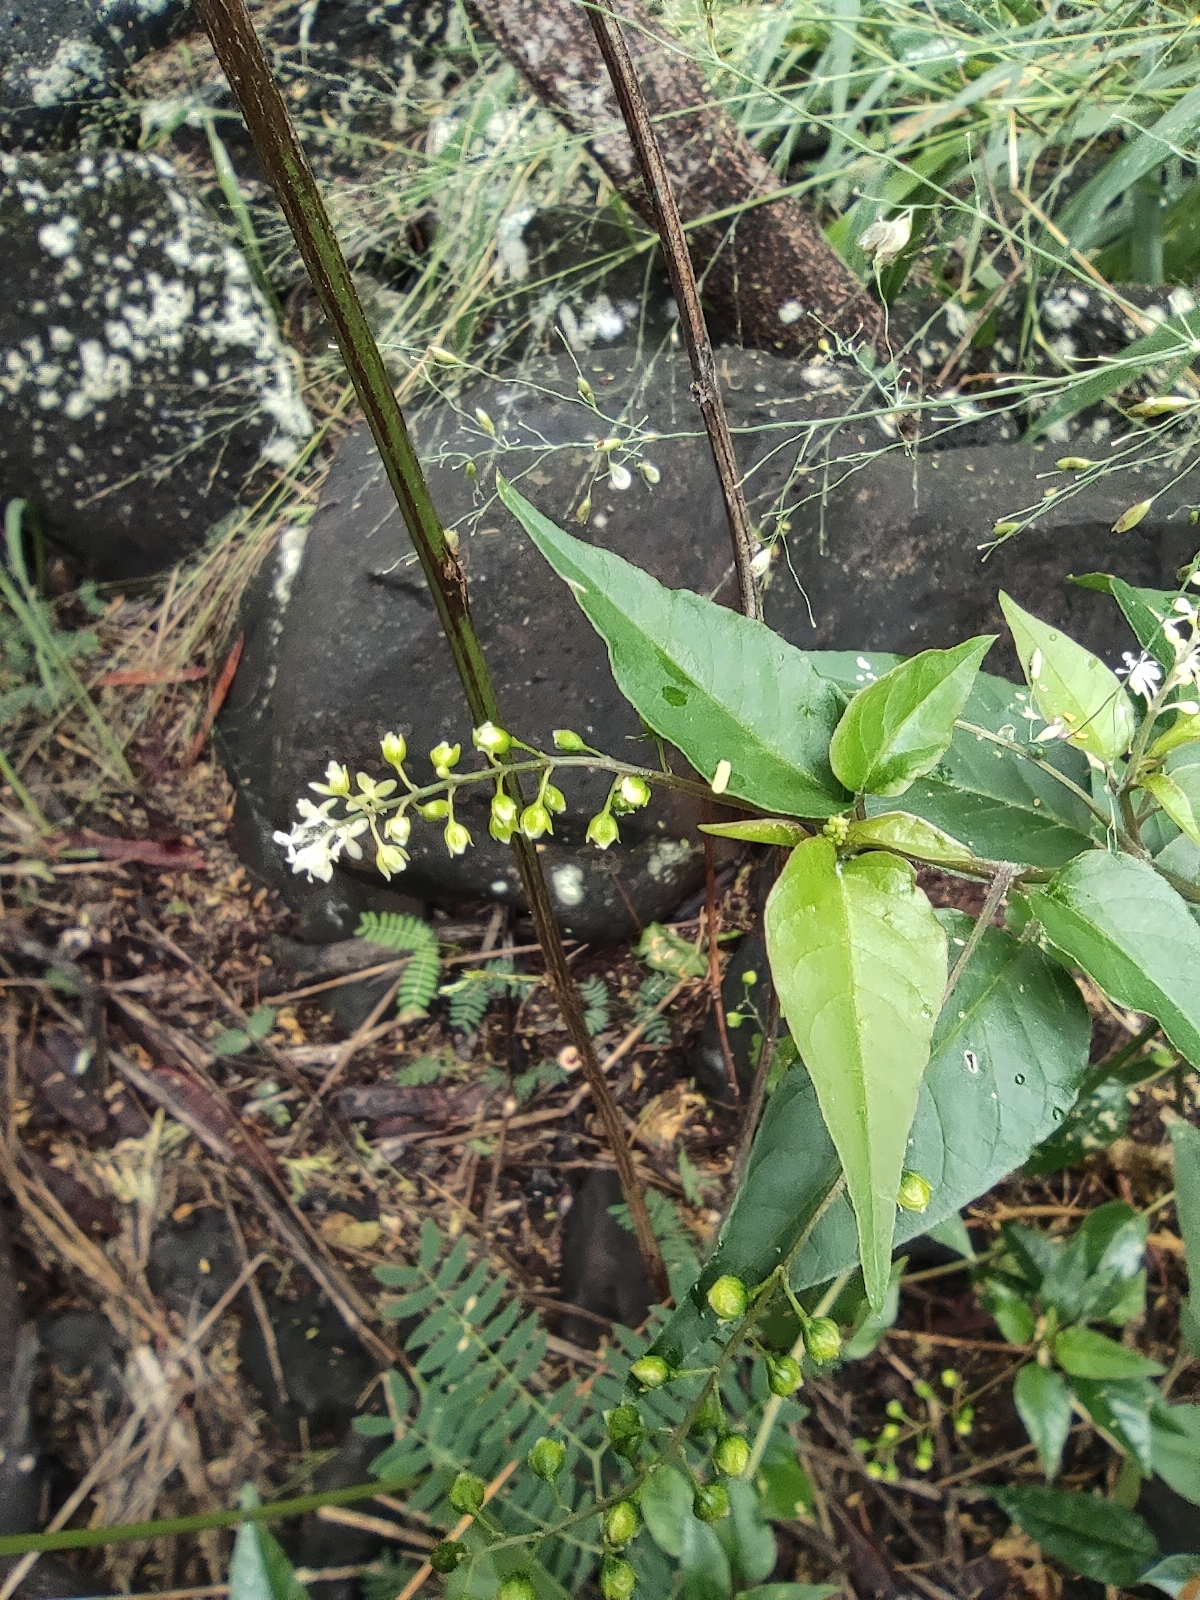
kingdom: Plantae
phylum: Tracheophyta
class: Magnoliopsida
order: Caryophyllales
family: Phytolaccaceae
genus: Rivina
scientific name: Rivina humilis
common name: Rougeplant
